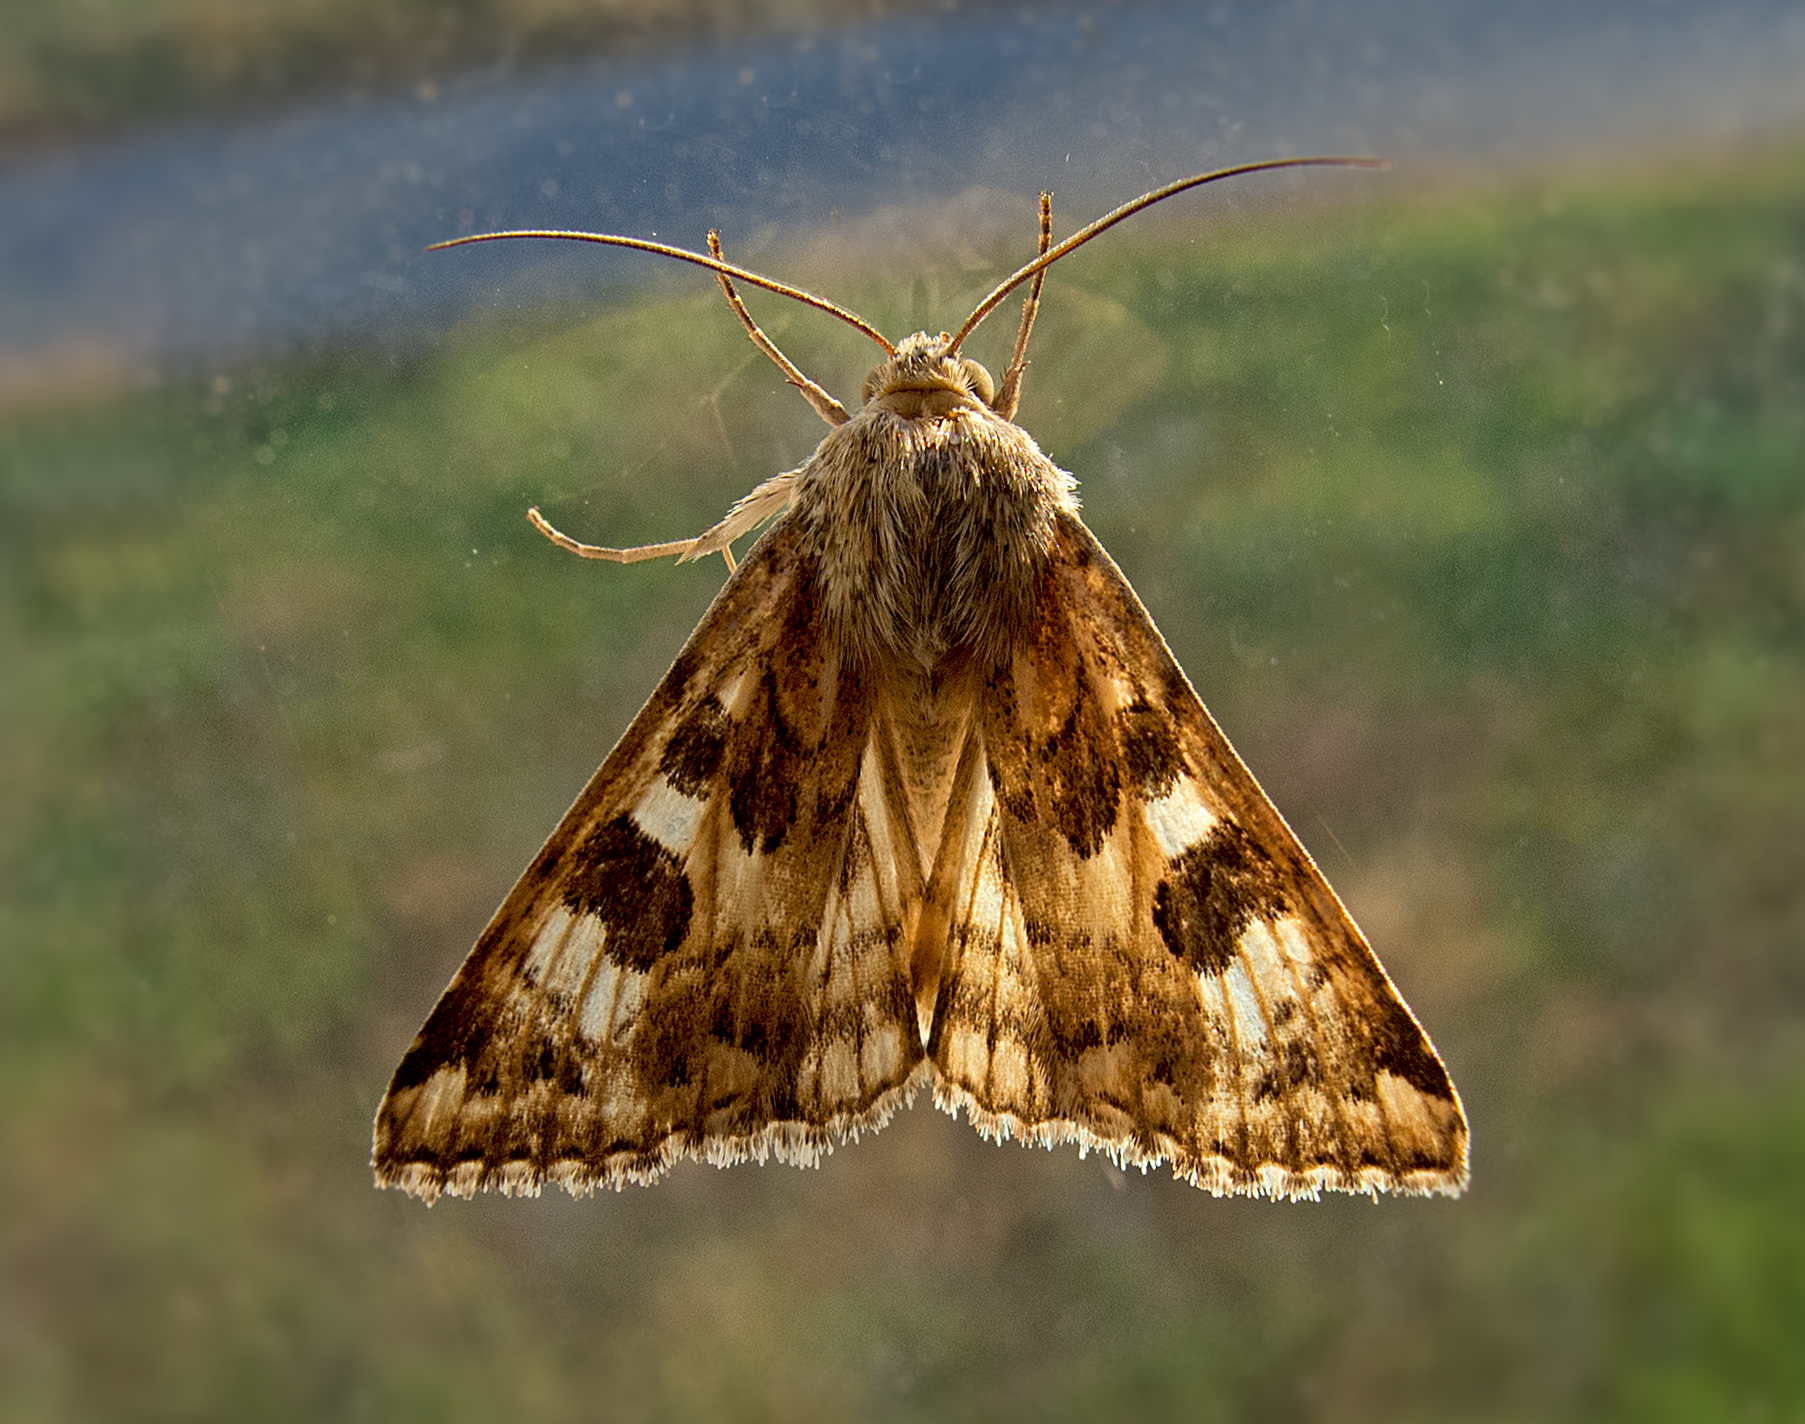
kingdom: Animalia
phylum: Arthropoda
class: Insecta
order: Lepidoptera
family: Noctuidae
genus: Protoschinia
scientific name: Protoschinia scutosa
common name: Spotted clover
